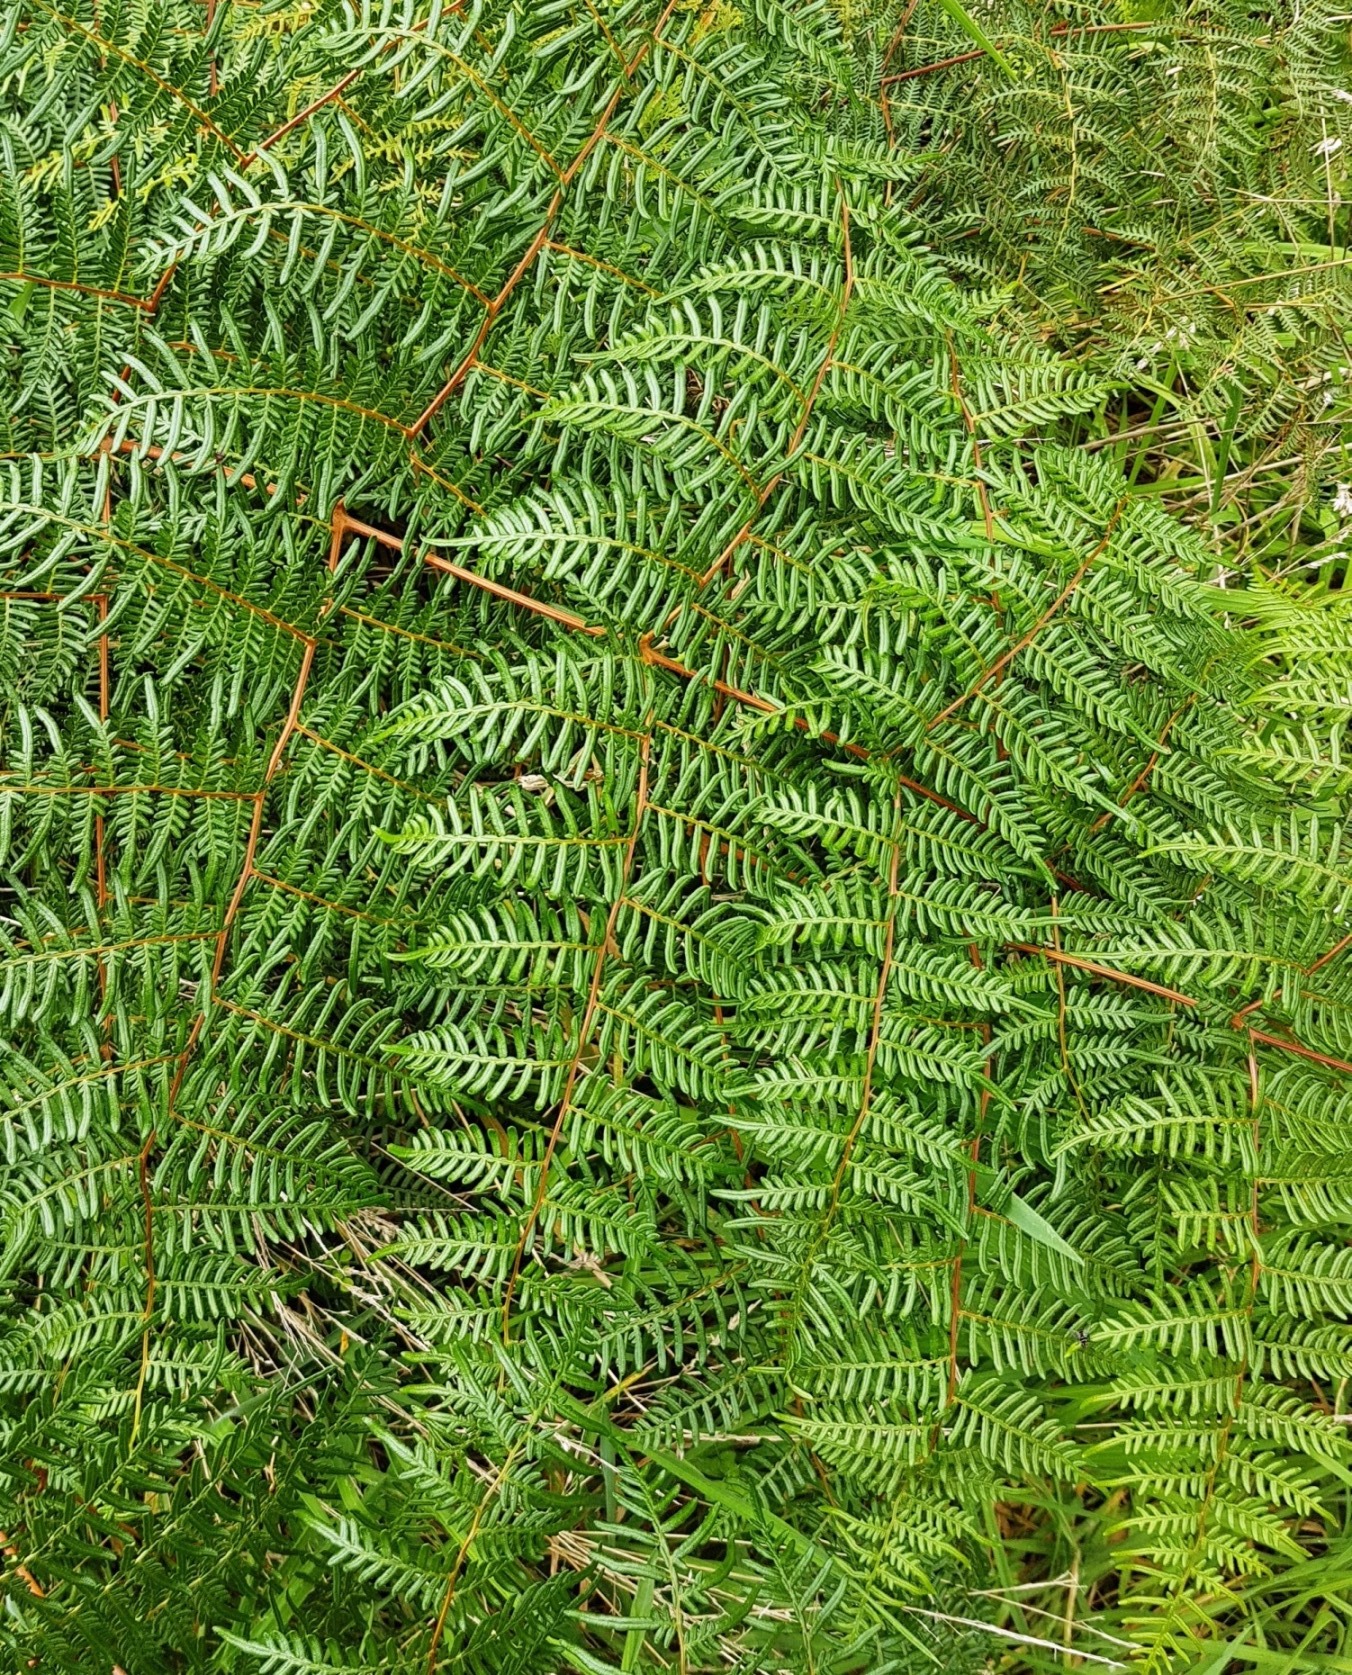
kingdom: Plantae
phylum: Tracheophyta
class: Polypodiopsida
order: Polypodiales
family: Dennstaedtiaceae
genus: Pteridium
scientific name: Pteridium esculentum
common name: Bracken fern
